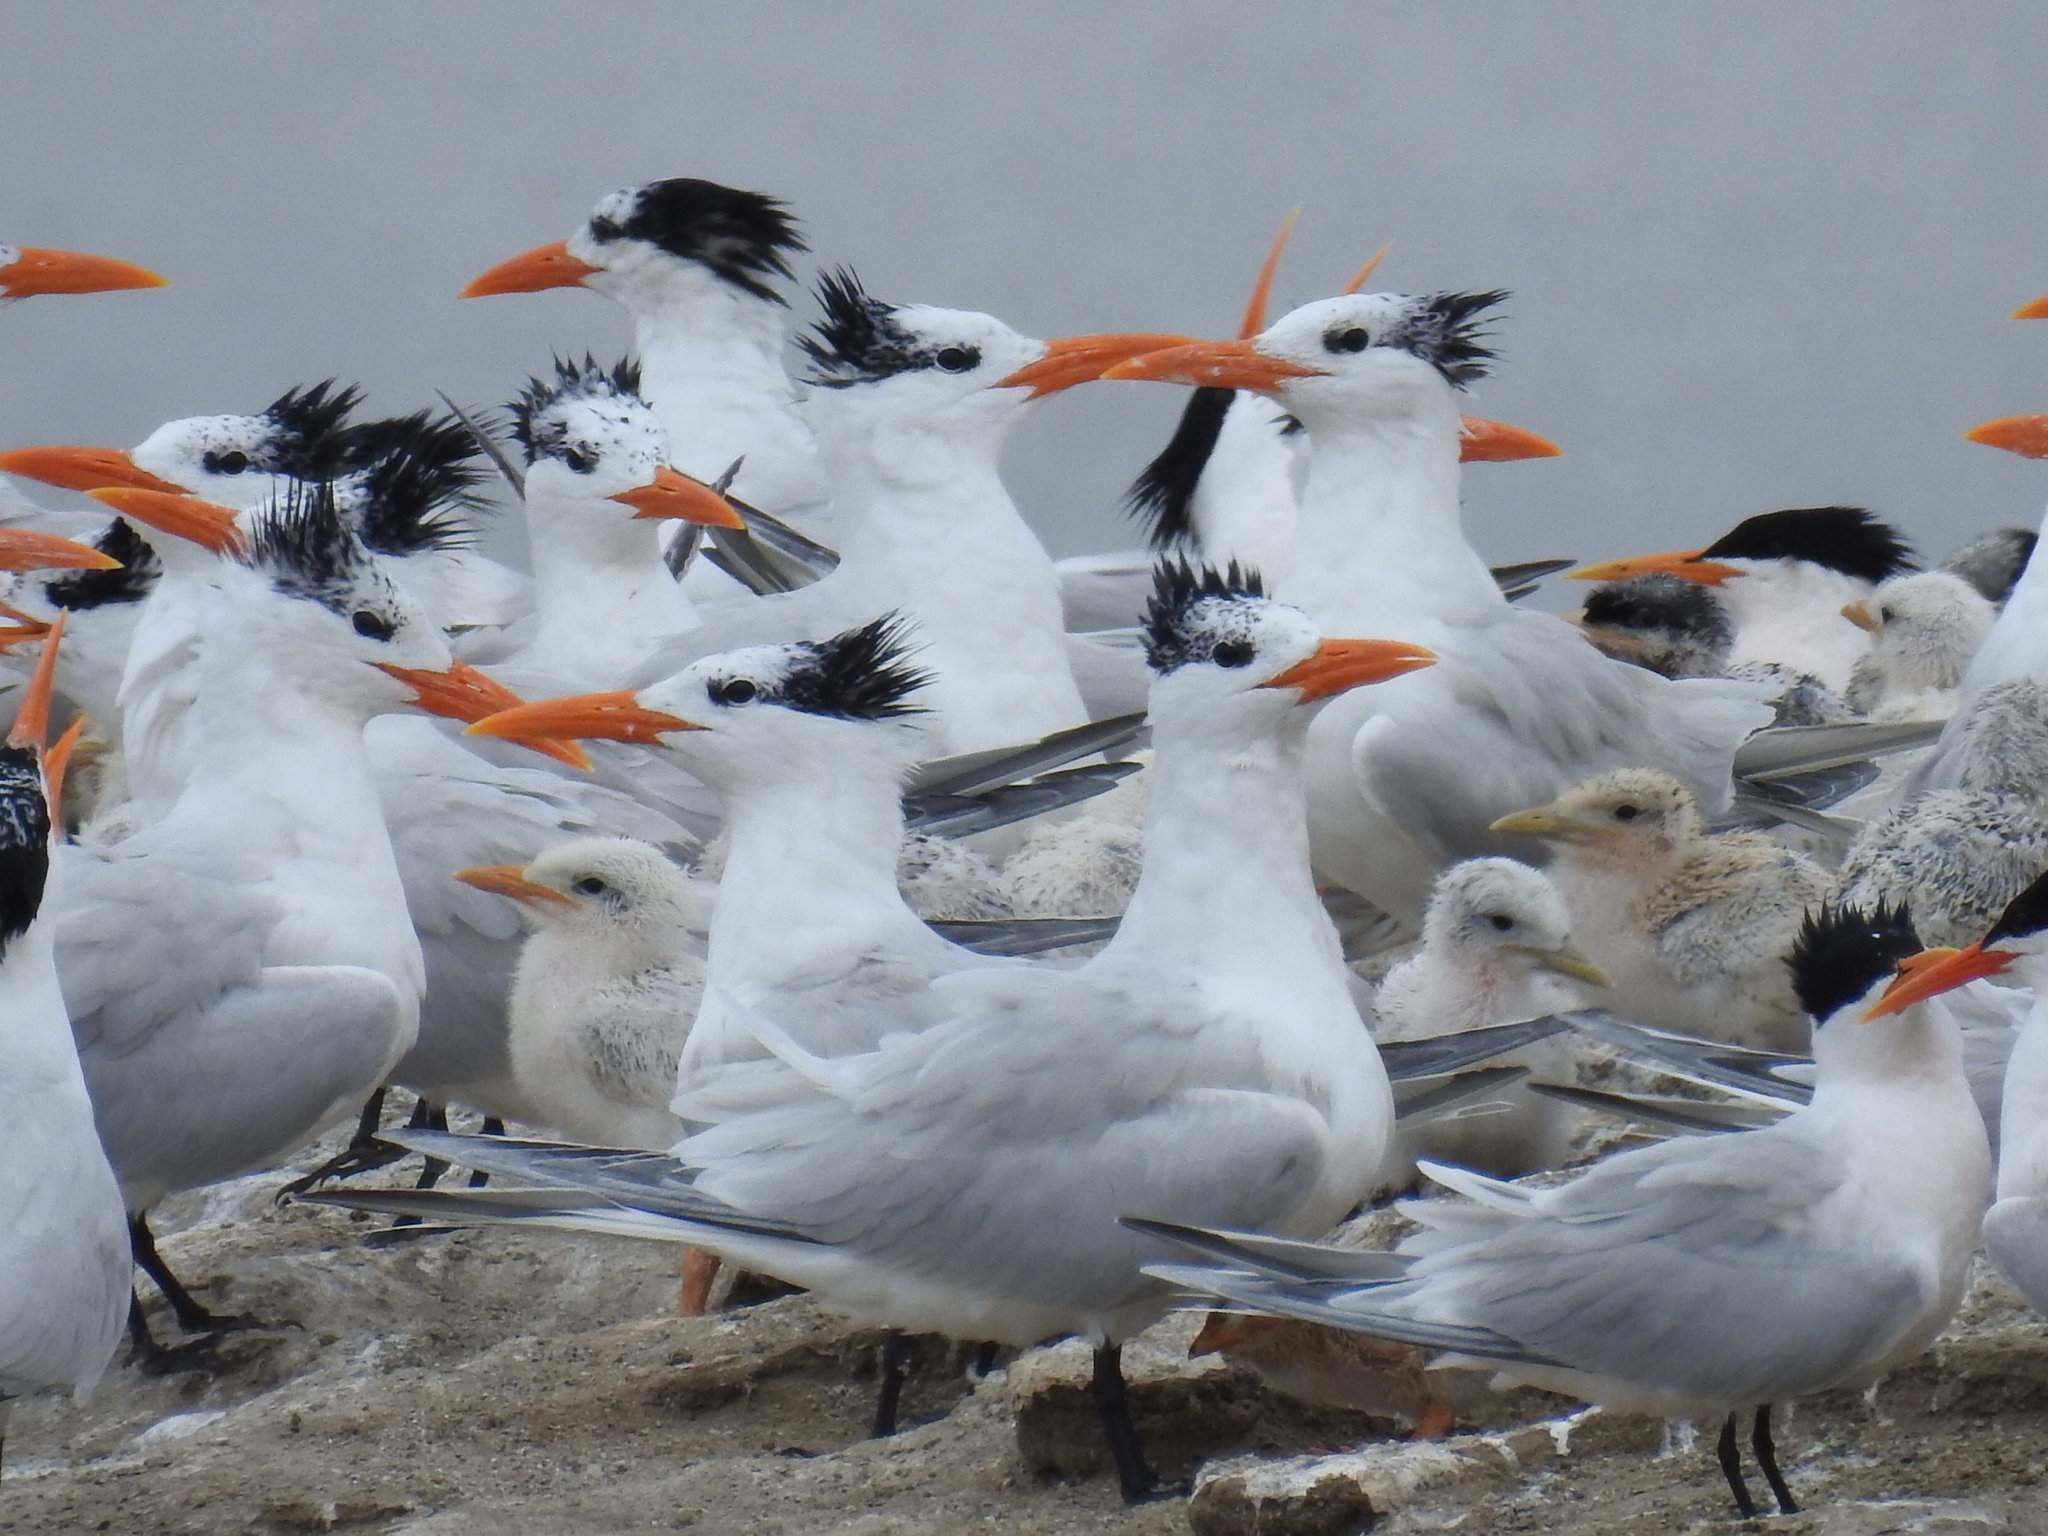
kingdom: Animalia
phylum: Chordata
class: Aves
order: Charadriiformes
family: Laridae
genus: Thalasseus
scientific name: Thalasseus maximus
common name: Royal tern
